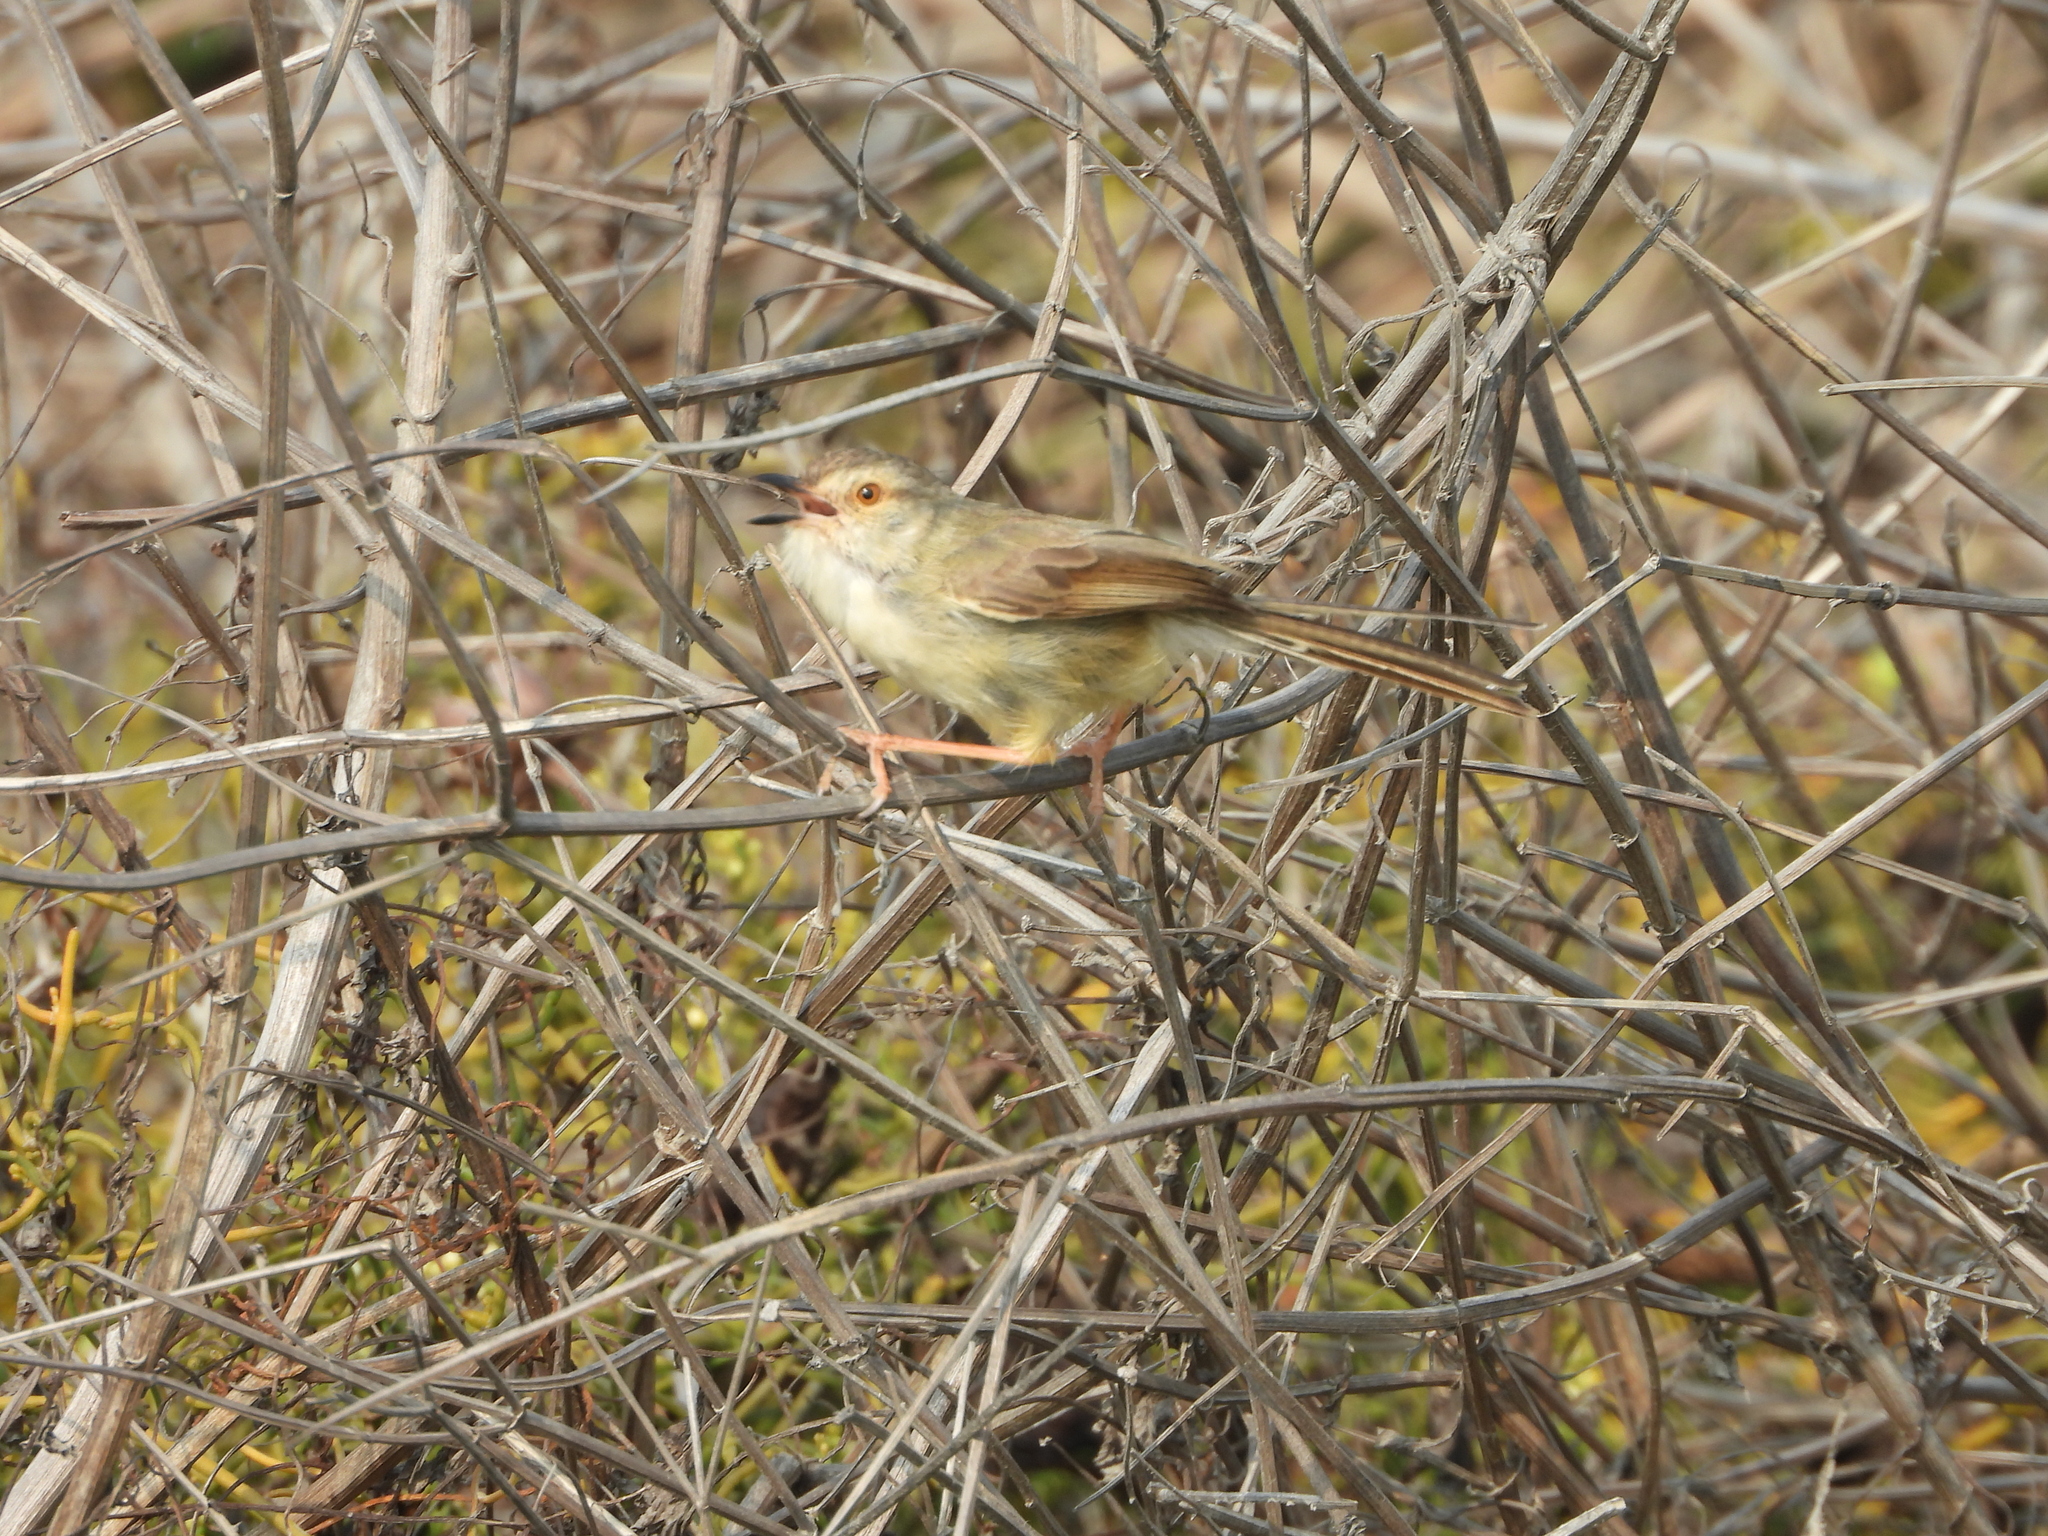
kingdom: Animalia
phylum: Chordata
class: Aves
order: Passeriformes
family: Cisticolidae
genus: Prinia
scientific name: Prinia inornata
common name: Plain prinia
